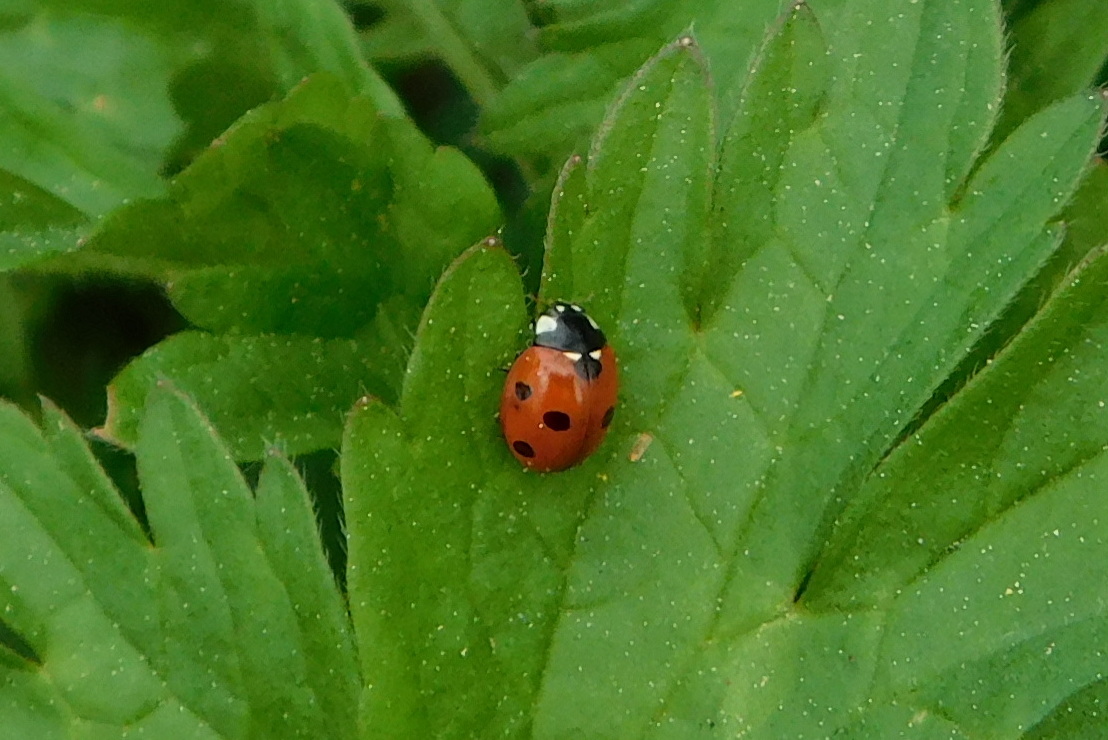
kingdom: Animalia
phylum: Arthropoda
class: Insecta
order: Coleoptera
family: Coccinellidae
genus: Coccinella
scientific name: Coccinella septempunctata
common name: Sevenspotted lady beetle
